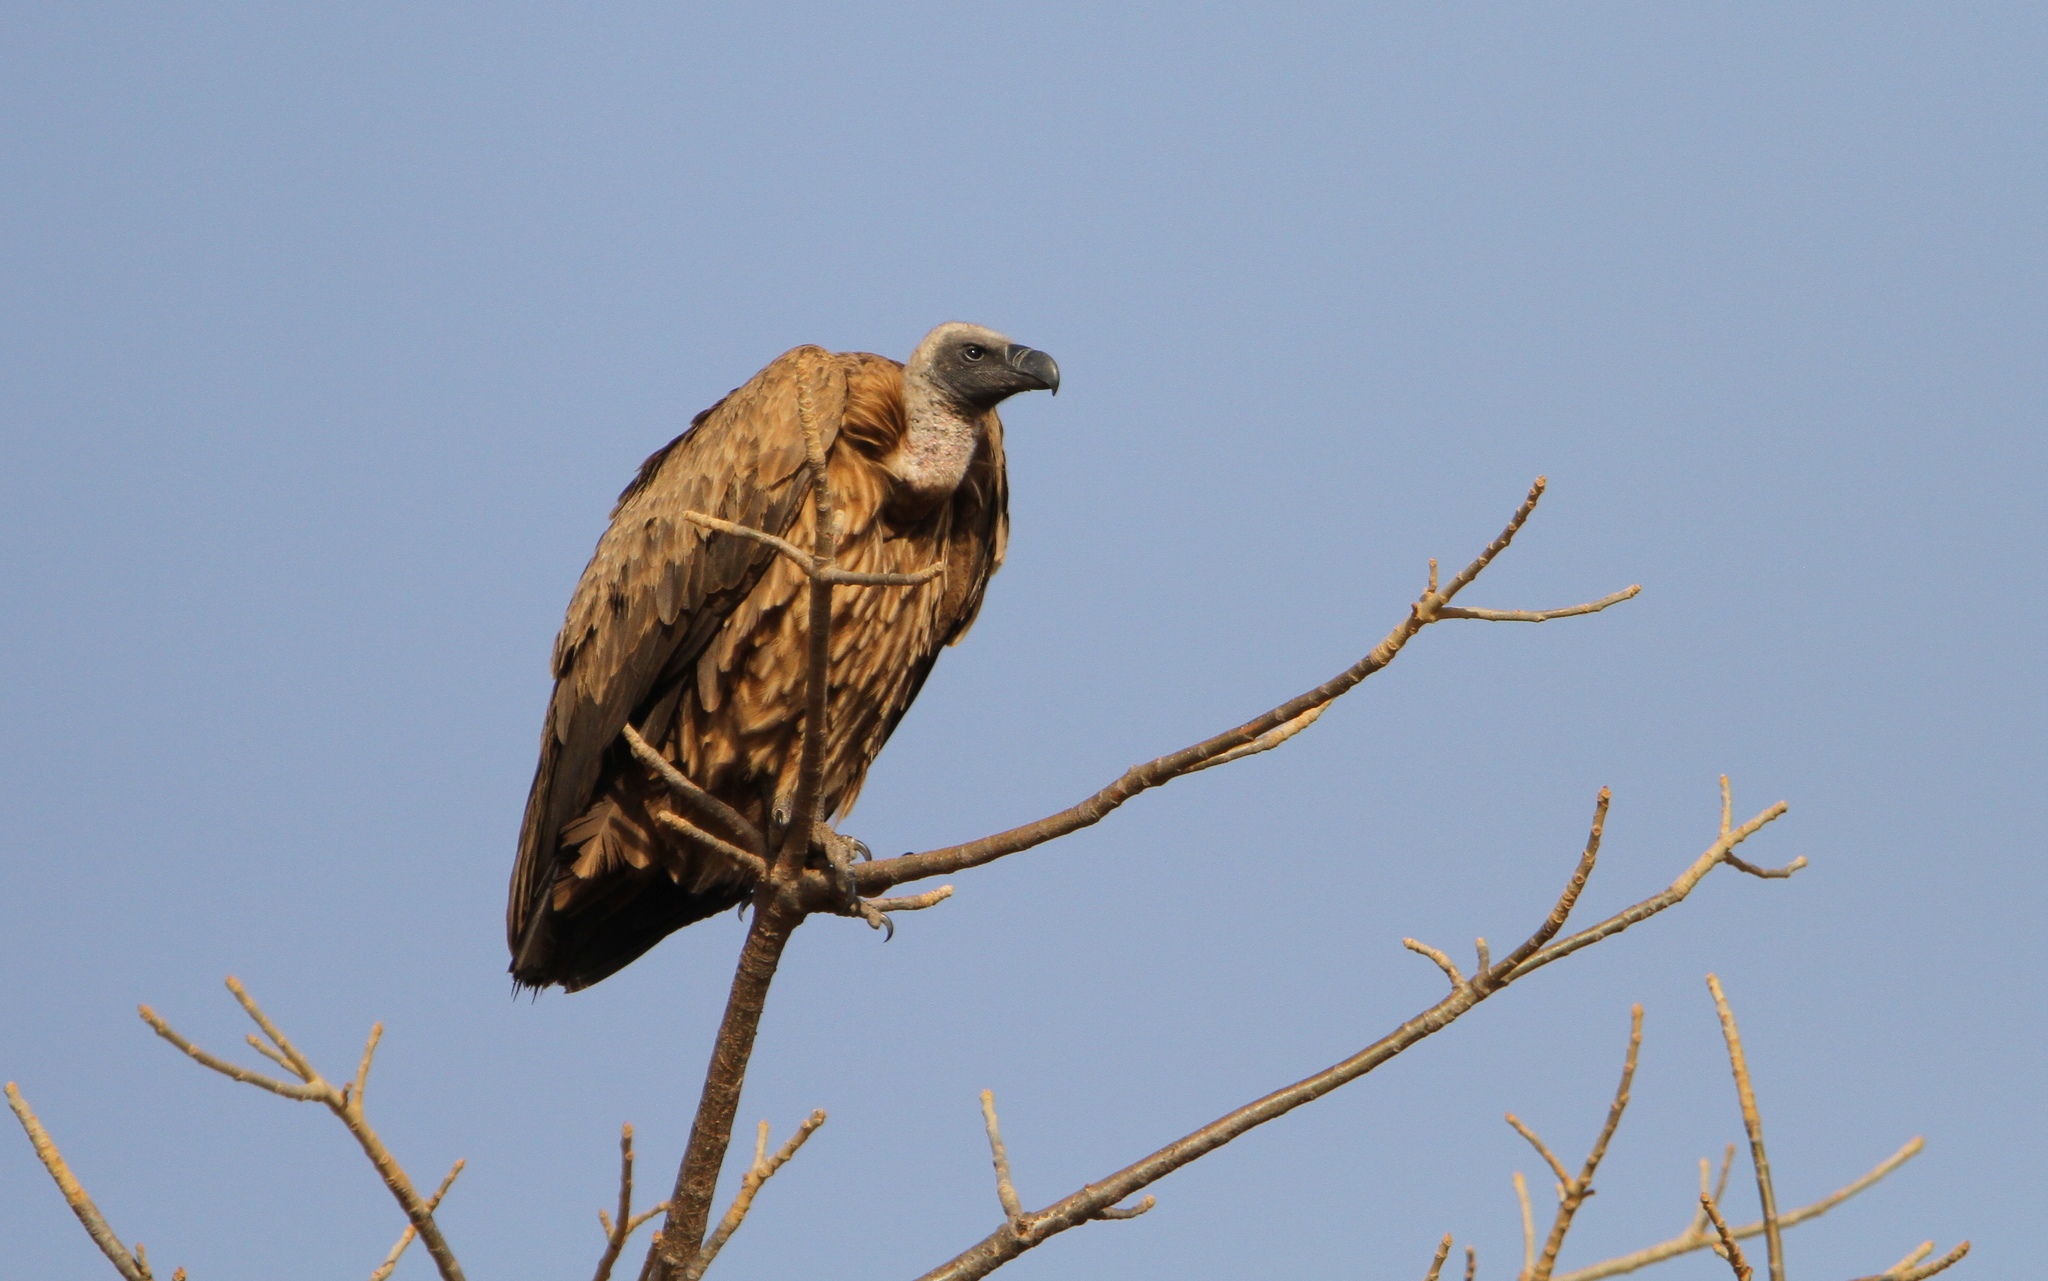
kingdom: Animalia
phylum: Chordata
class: Aves
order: Accipitriformes
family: Accipitridae
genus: Gyps
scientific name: Gyps africanus
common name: White-backed vulture
